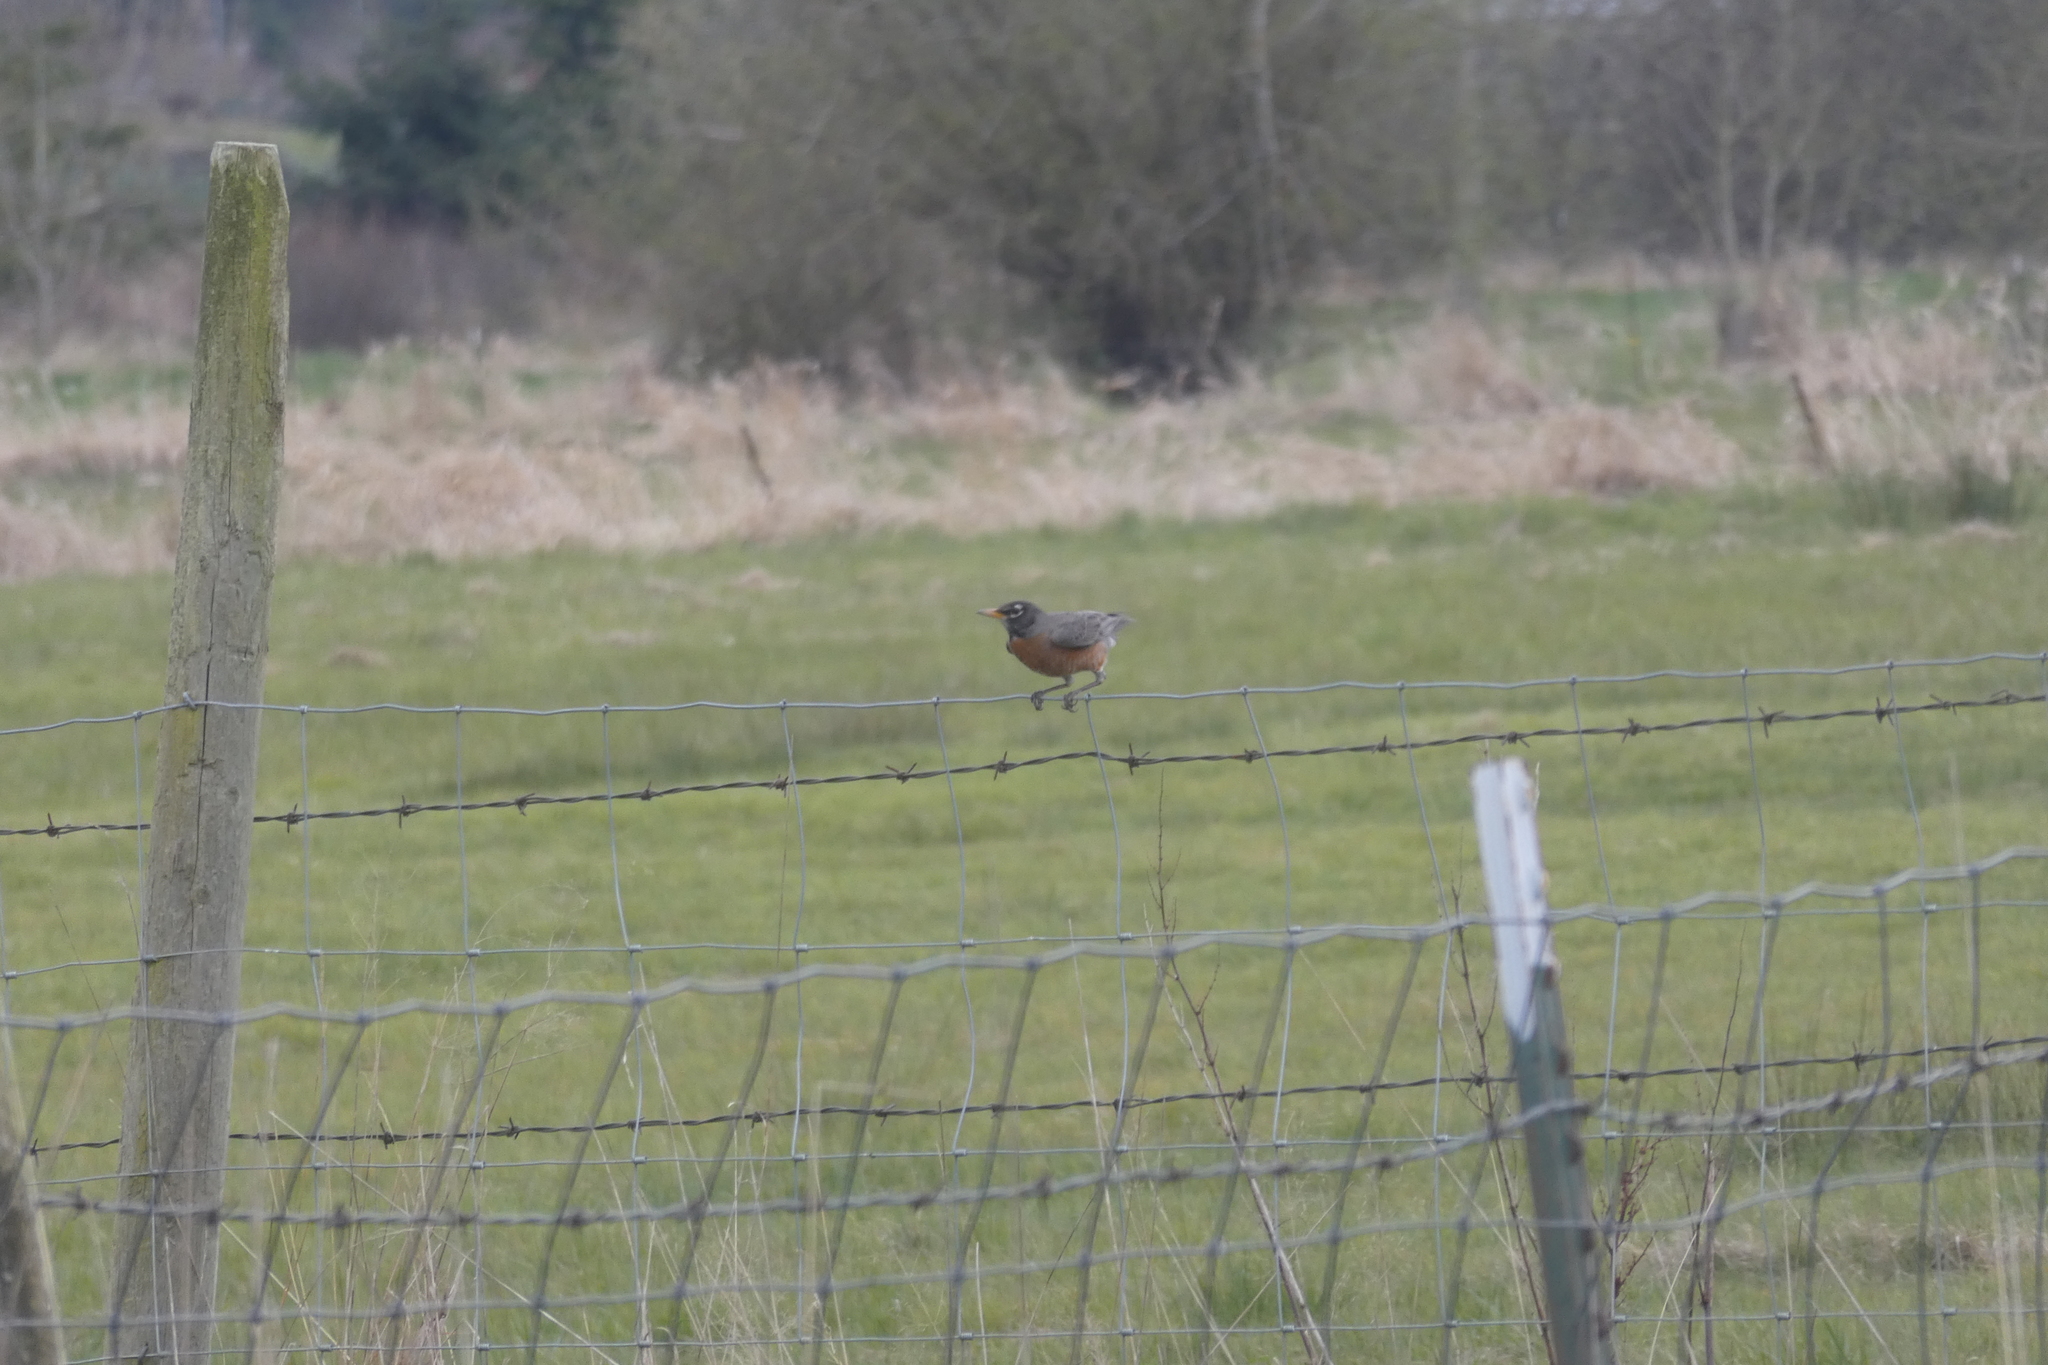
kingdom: Animalia
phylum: Chordata
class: Aves
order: Passeriformes
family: Turdidae
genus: Turdus
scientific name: Turdus migratorius
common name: American robin
